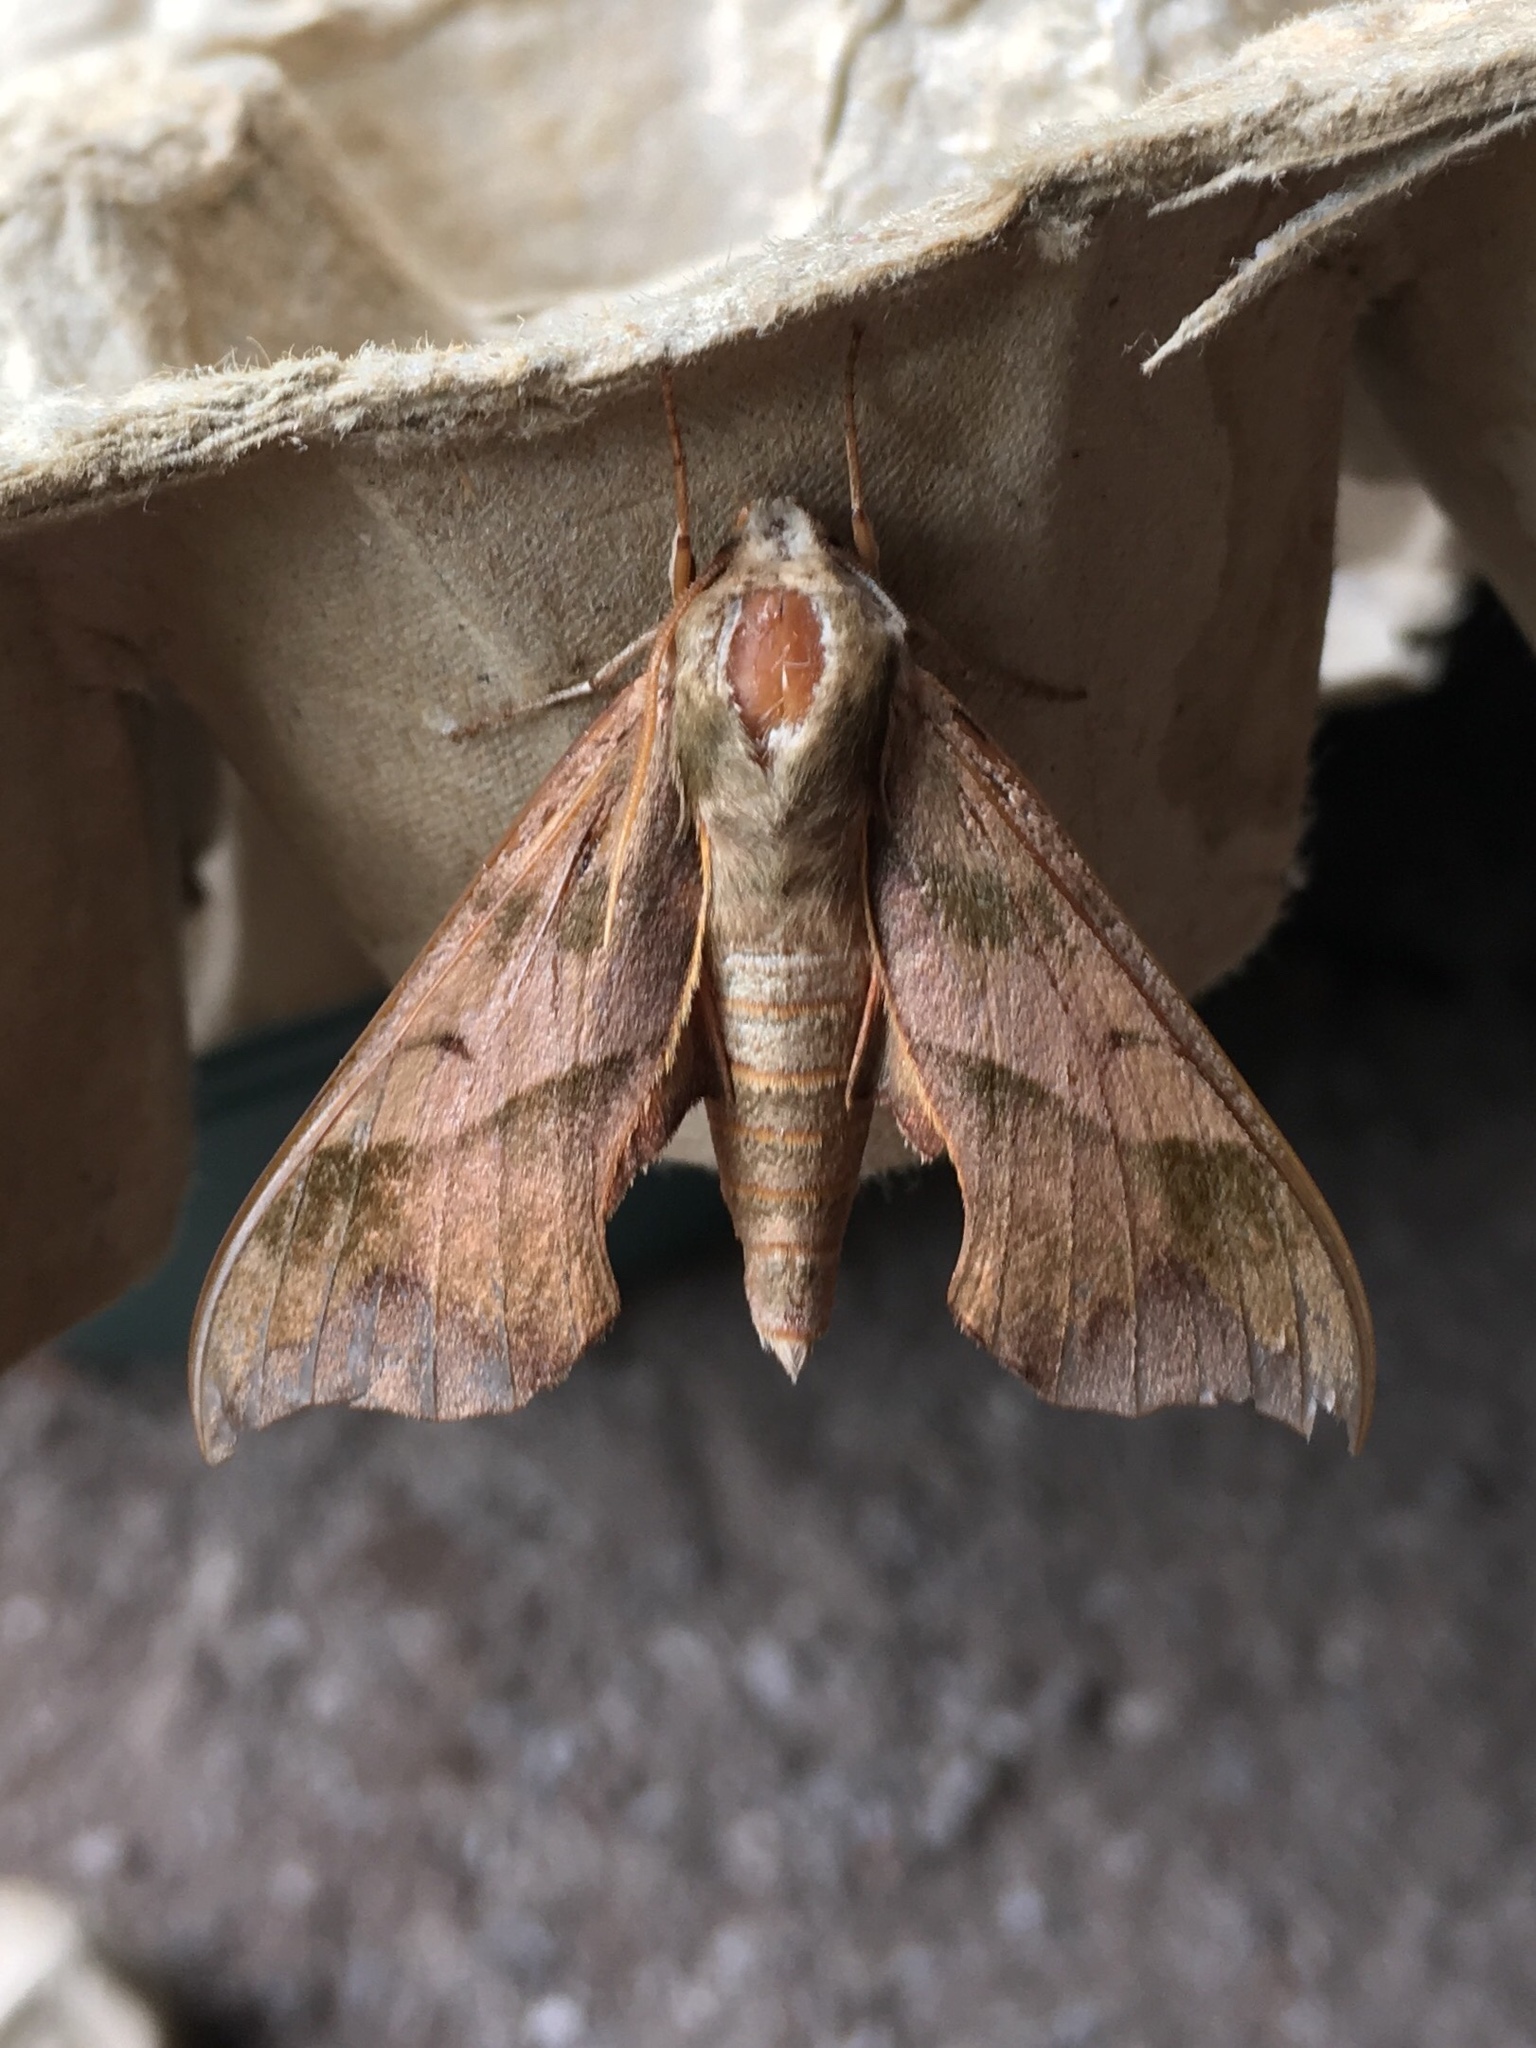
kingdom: Animalia
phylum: Arthropoda
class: Insecta
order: Lepidoptera
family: Sphingidae
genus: Darapsa
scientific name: Darapsa myron
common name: Hog sphinx
